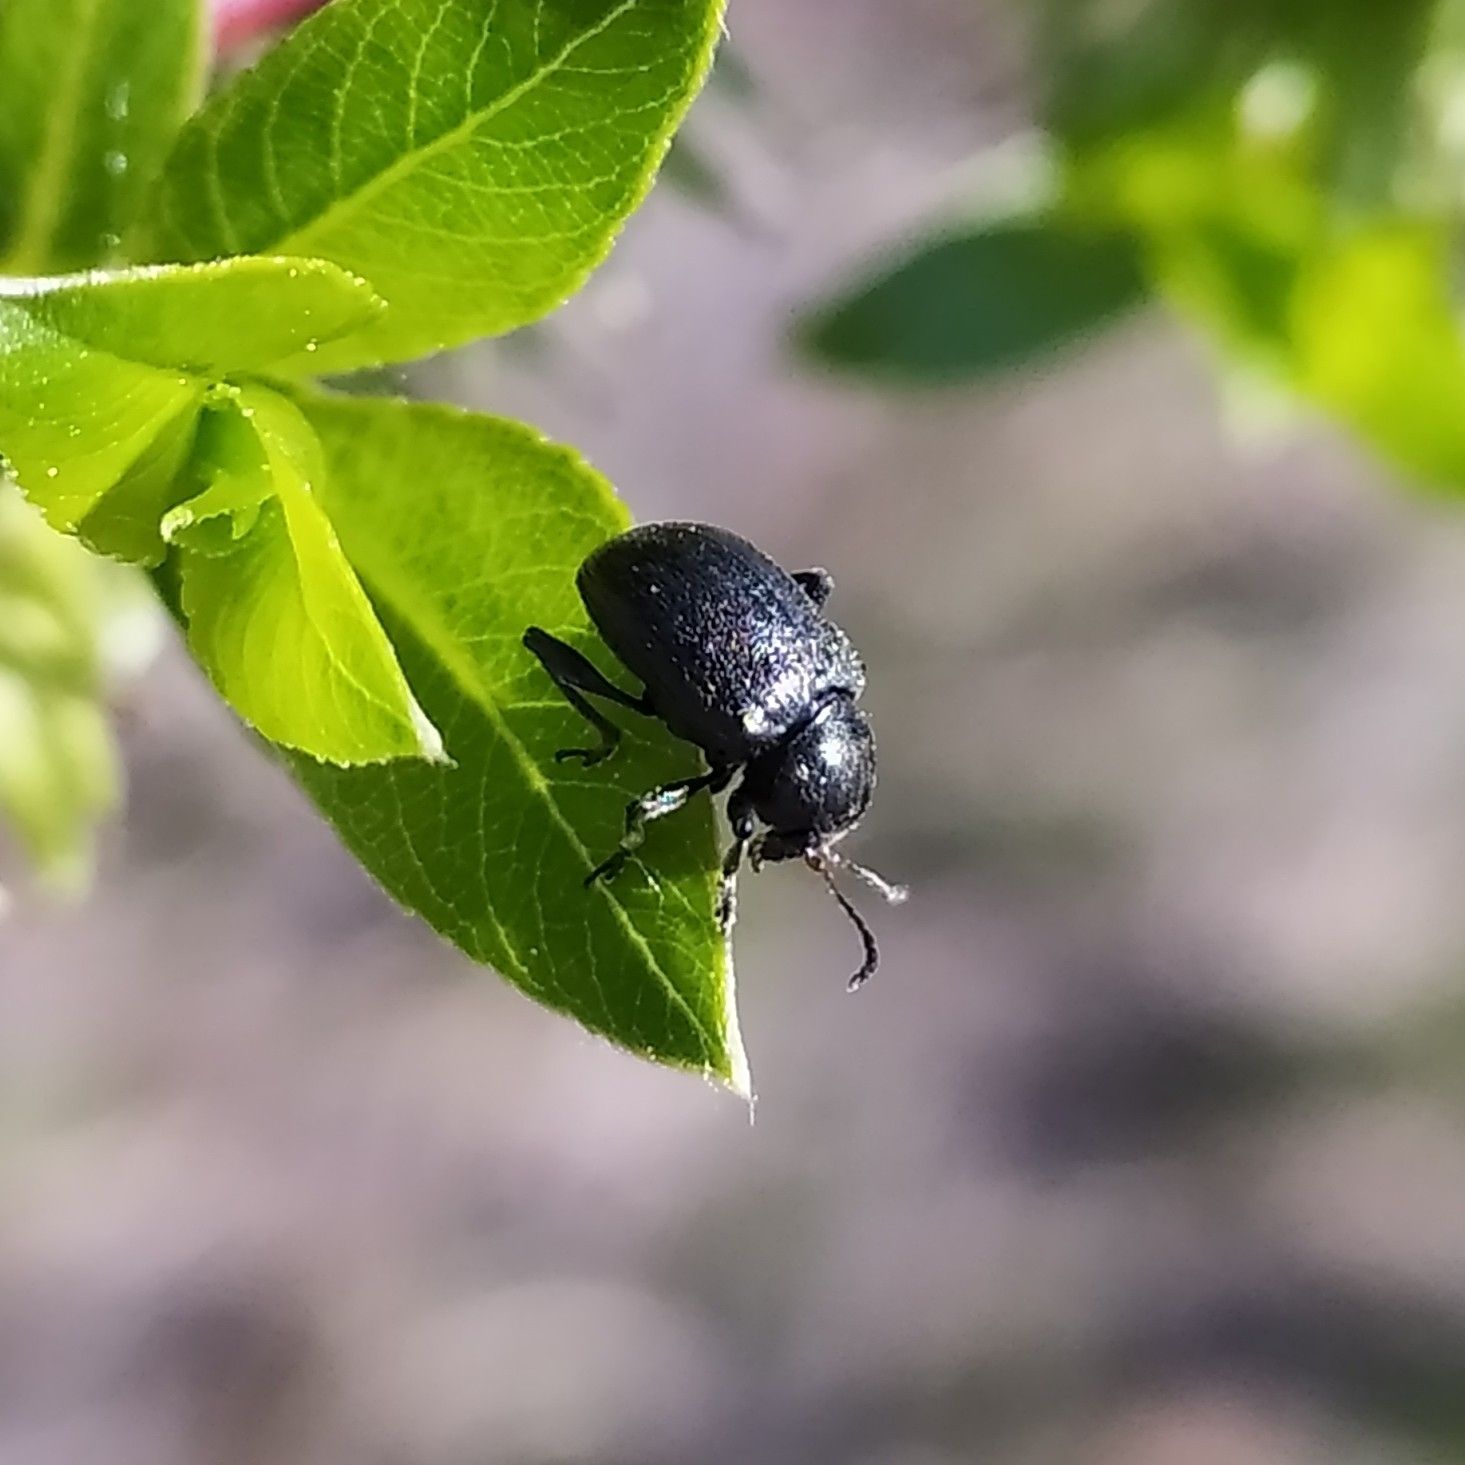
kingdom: Animalia
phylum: Arthropoda
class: Insecta
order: Coleoptera
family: Chrysomelidae
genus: Bromius
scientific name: Bromius obscurus
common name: Western grape rootworm
